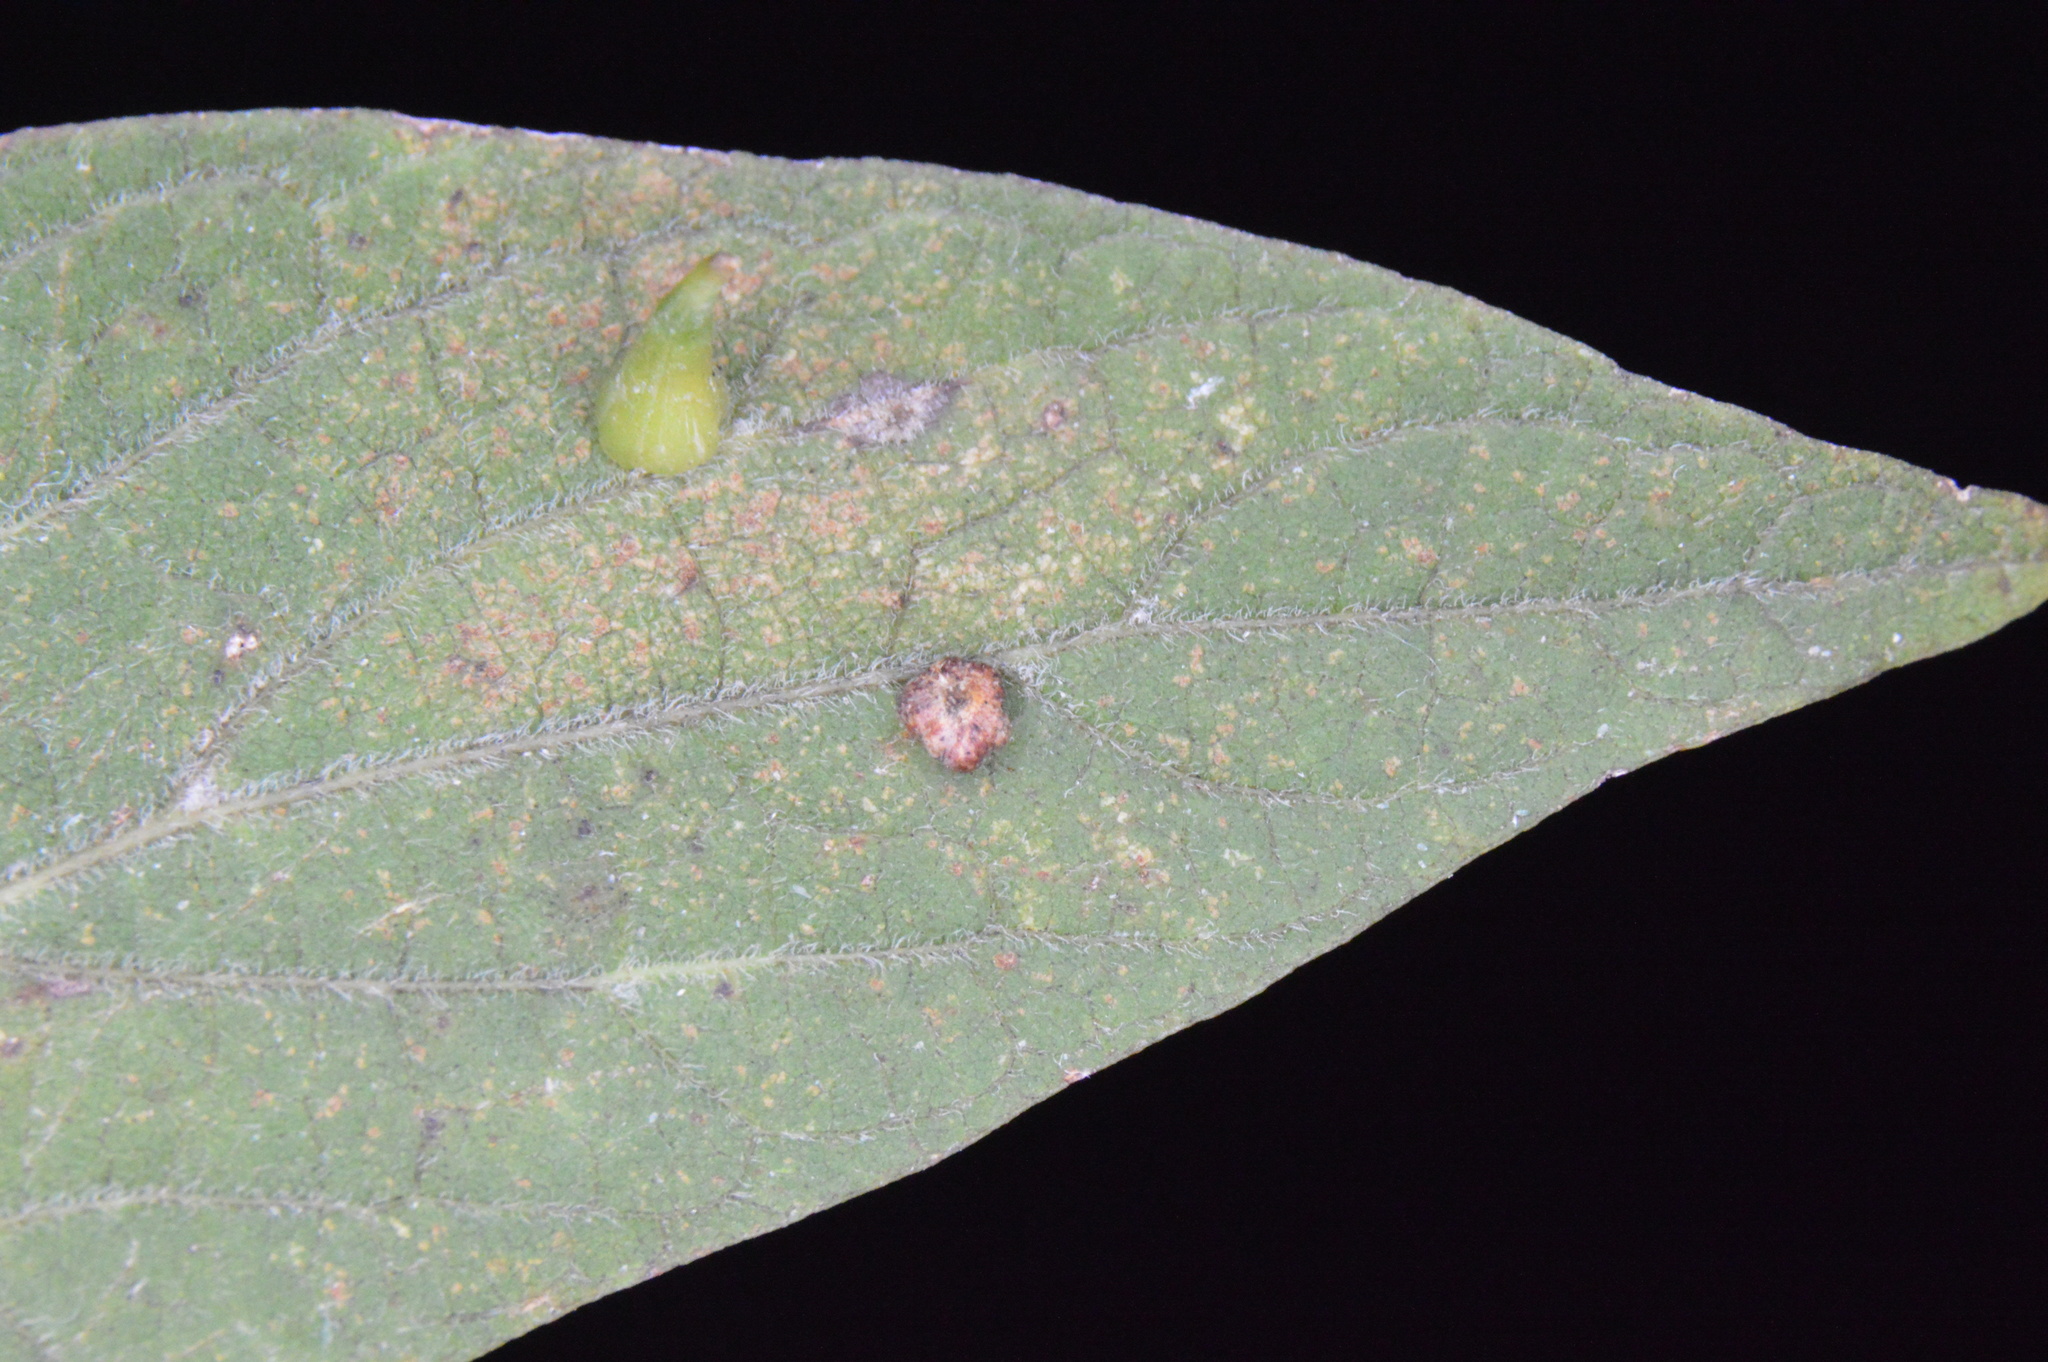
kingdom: Animalia
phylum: Arthropoda
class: Insecta
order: Diptera
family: Cecidomyiidae
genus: Celticecis
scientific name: Celticecis capsularis
